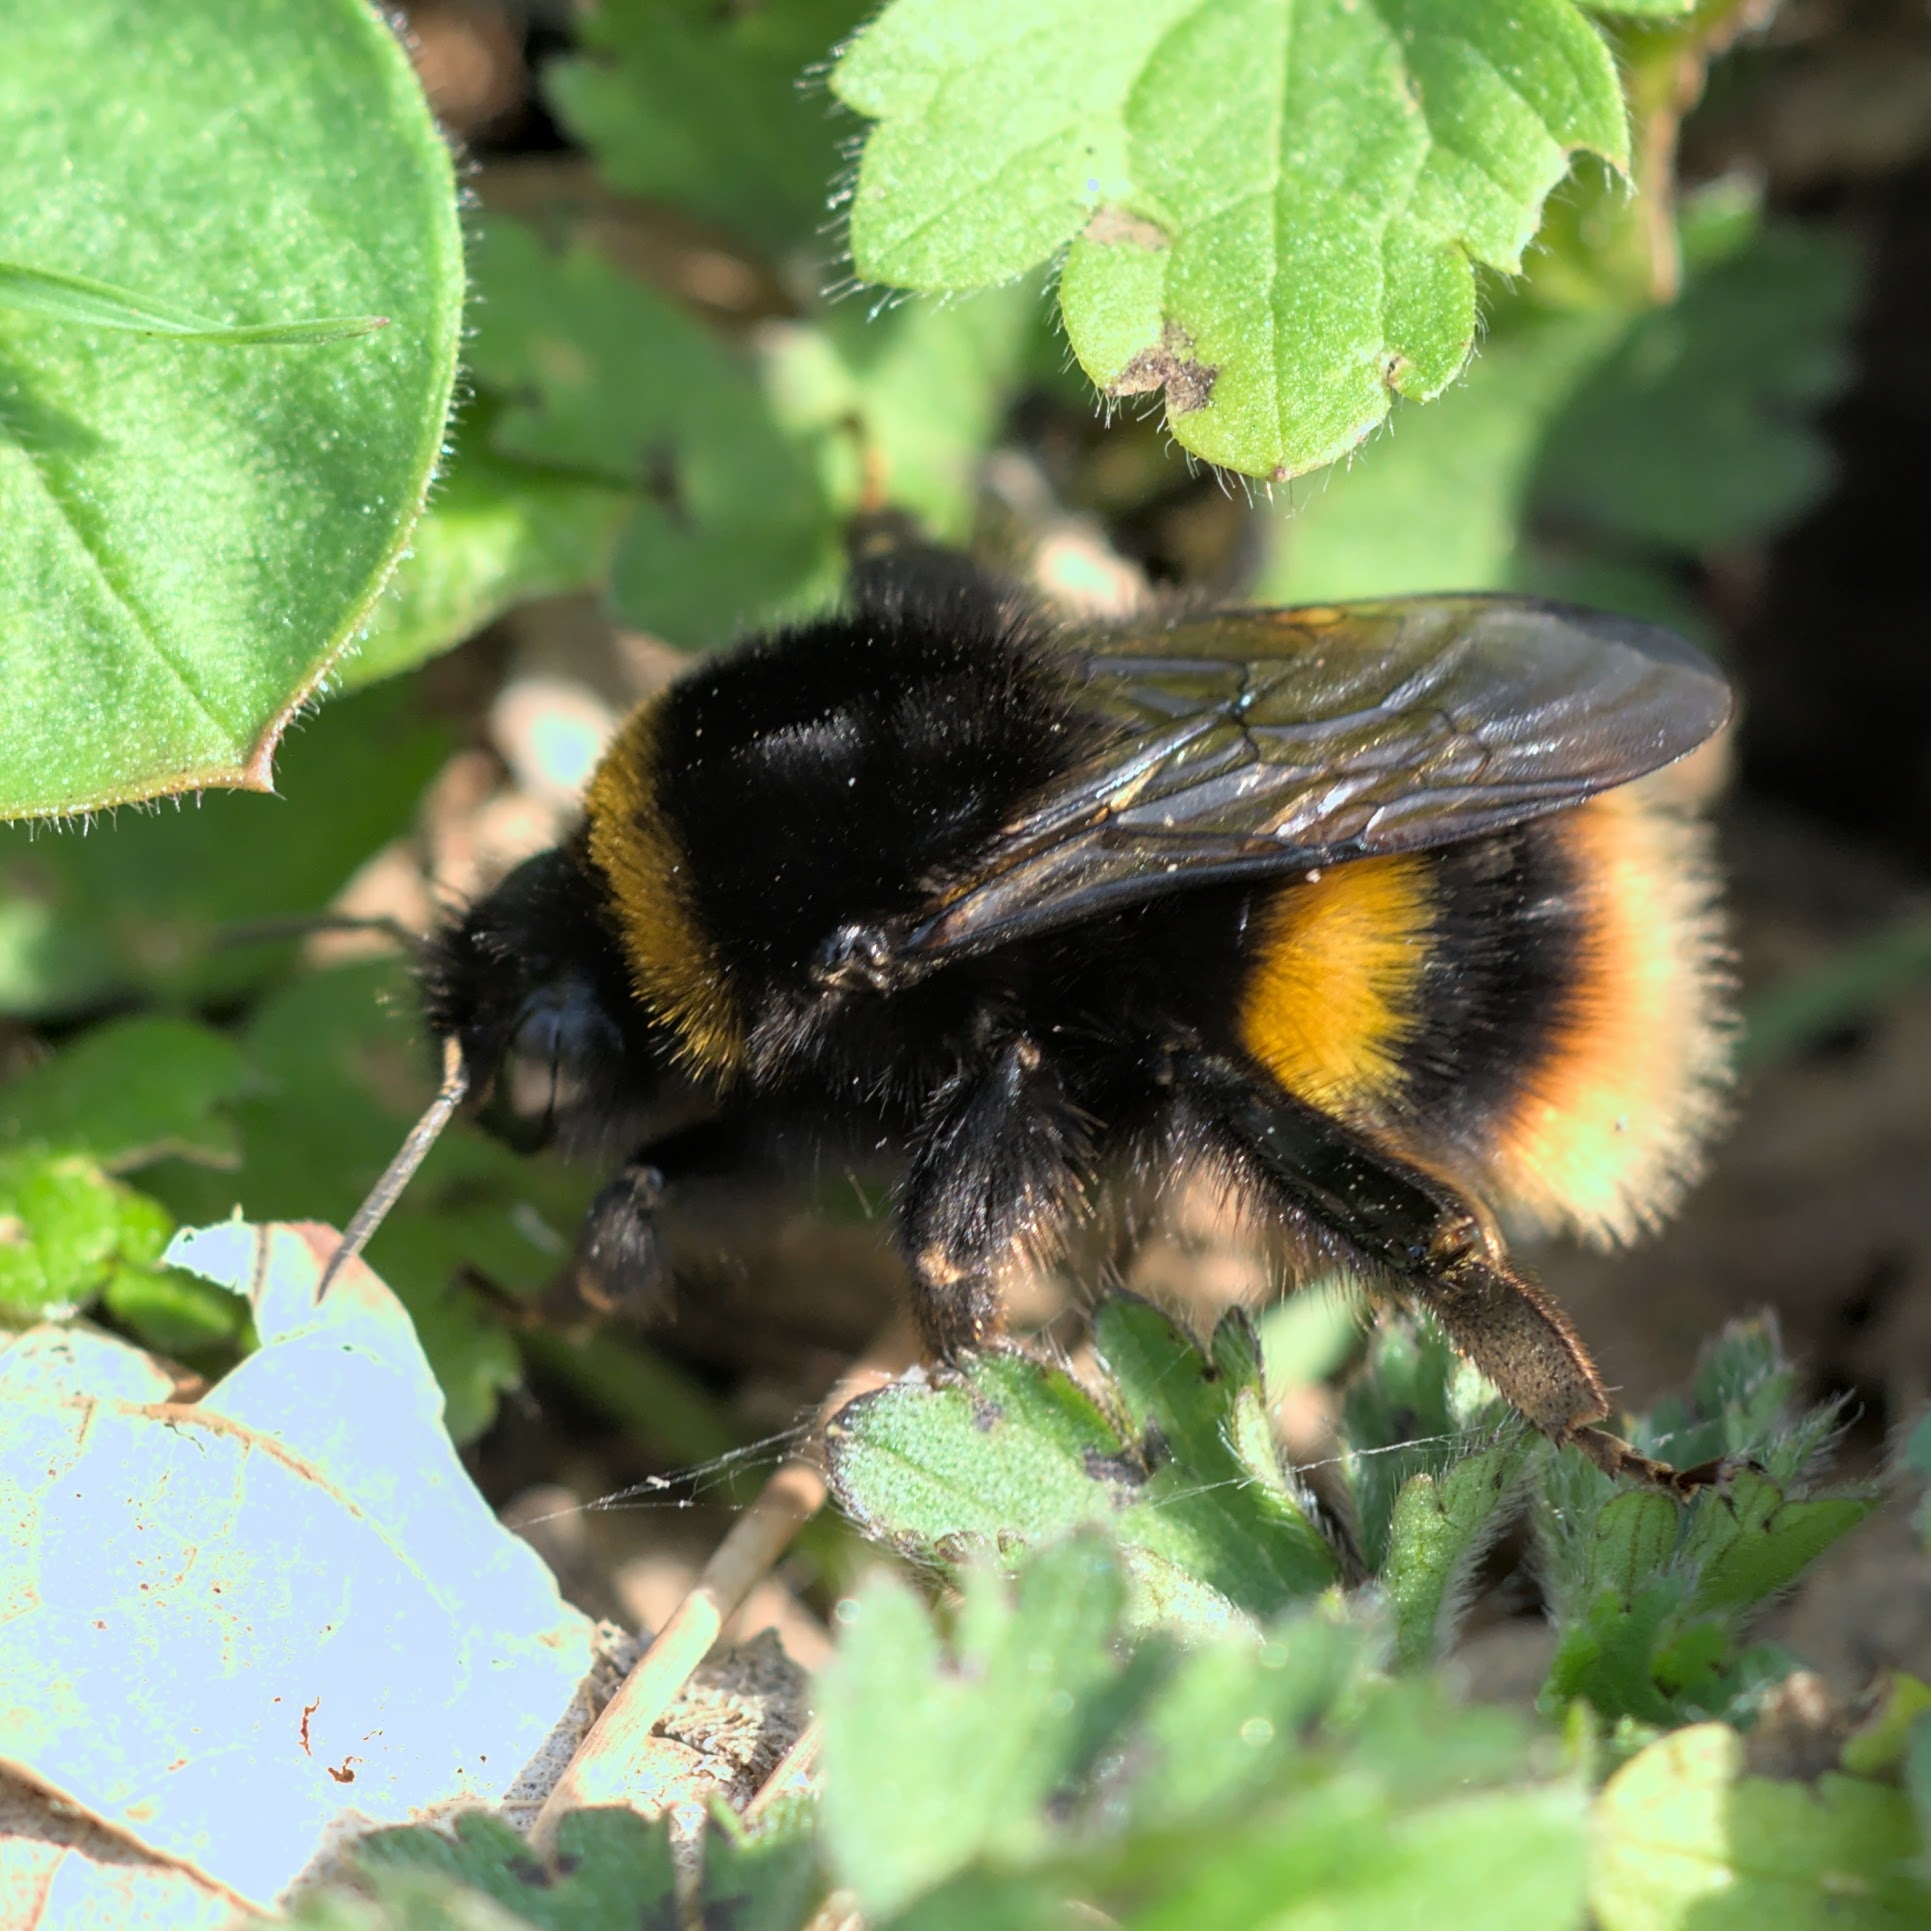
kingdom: Animalia
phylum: Arthropoda
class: Insecta
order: Hymenoptera
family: Apidae
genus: Bombus
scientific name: Bombus terrestris
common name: Buff-tailed bumblebee
